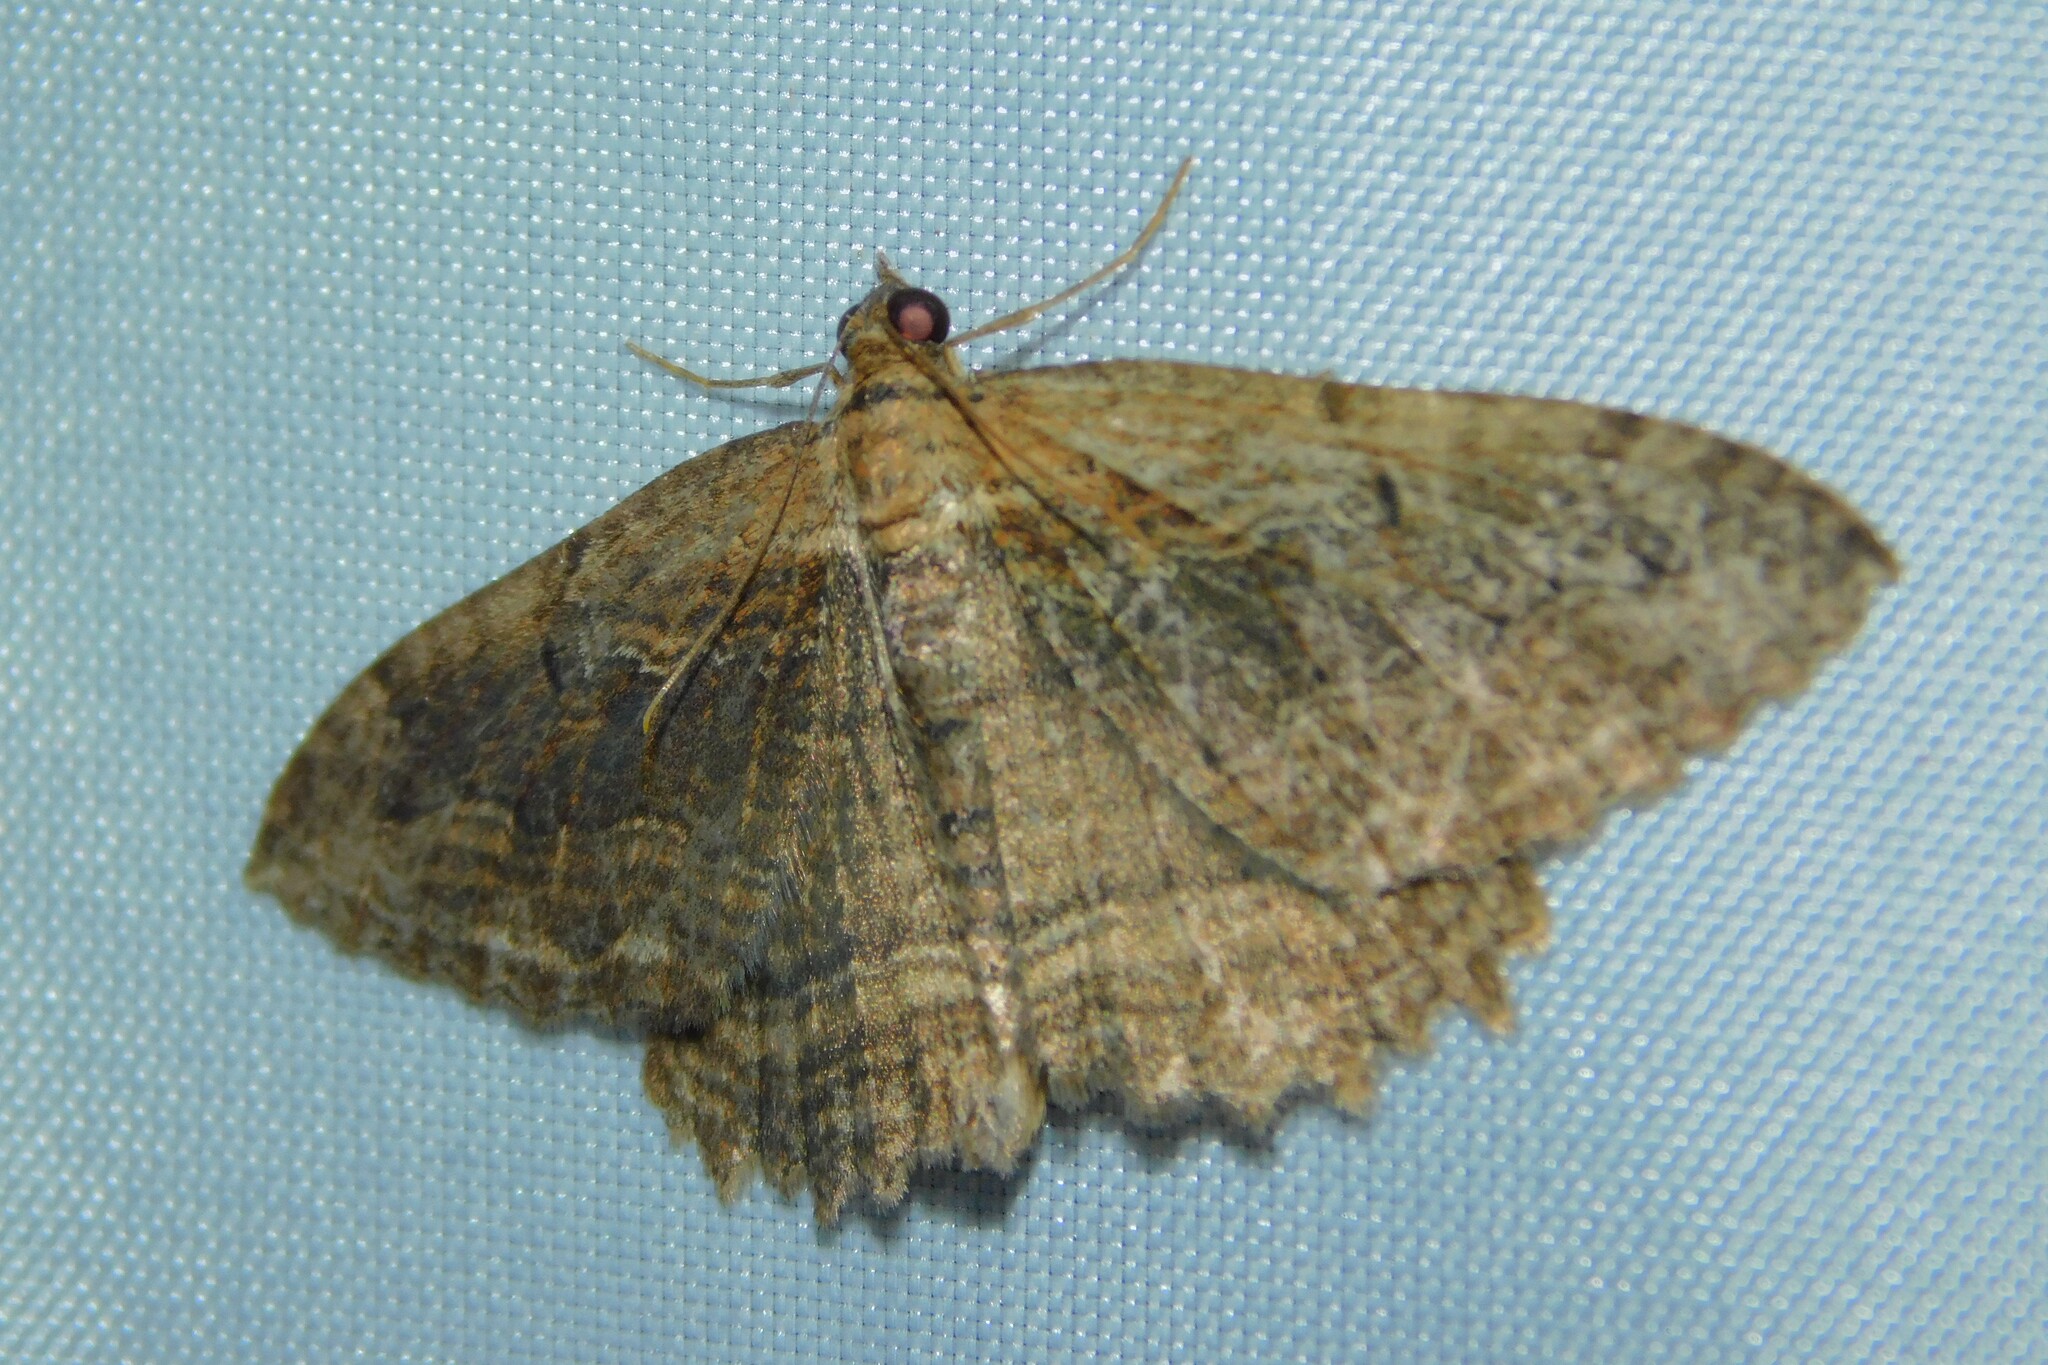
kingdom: Animalia
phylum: Arthropoda
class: Insecta
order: Lepidoptera
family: Geometridae
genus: Philereme
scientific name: Philereme transversata
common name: Dark umber
